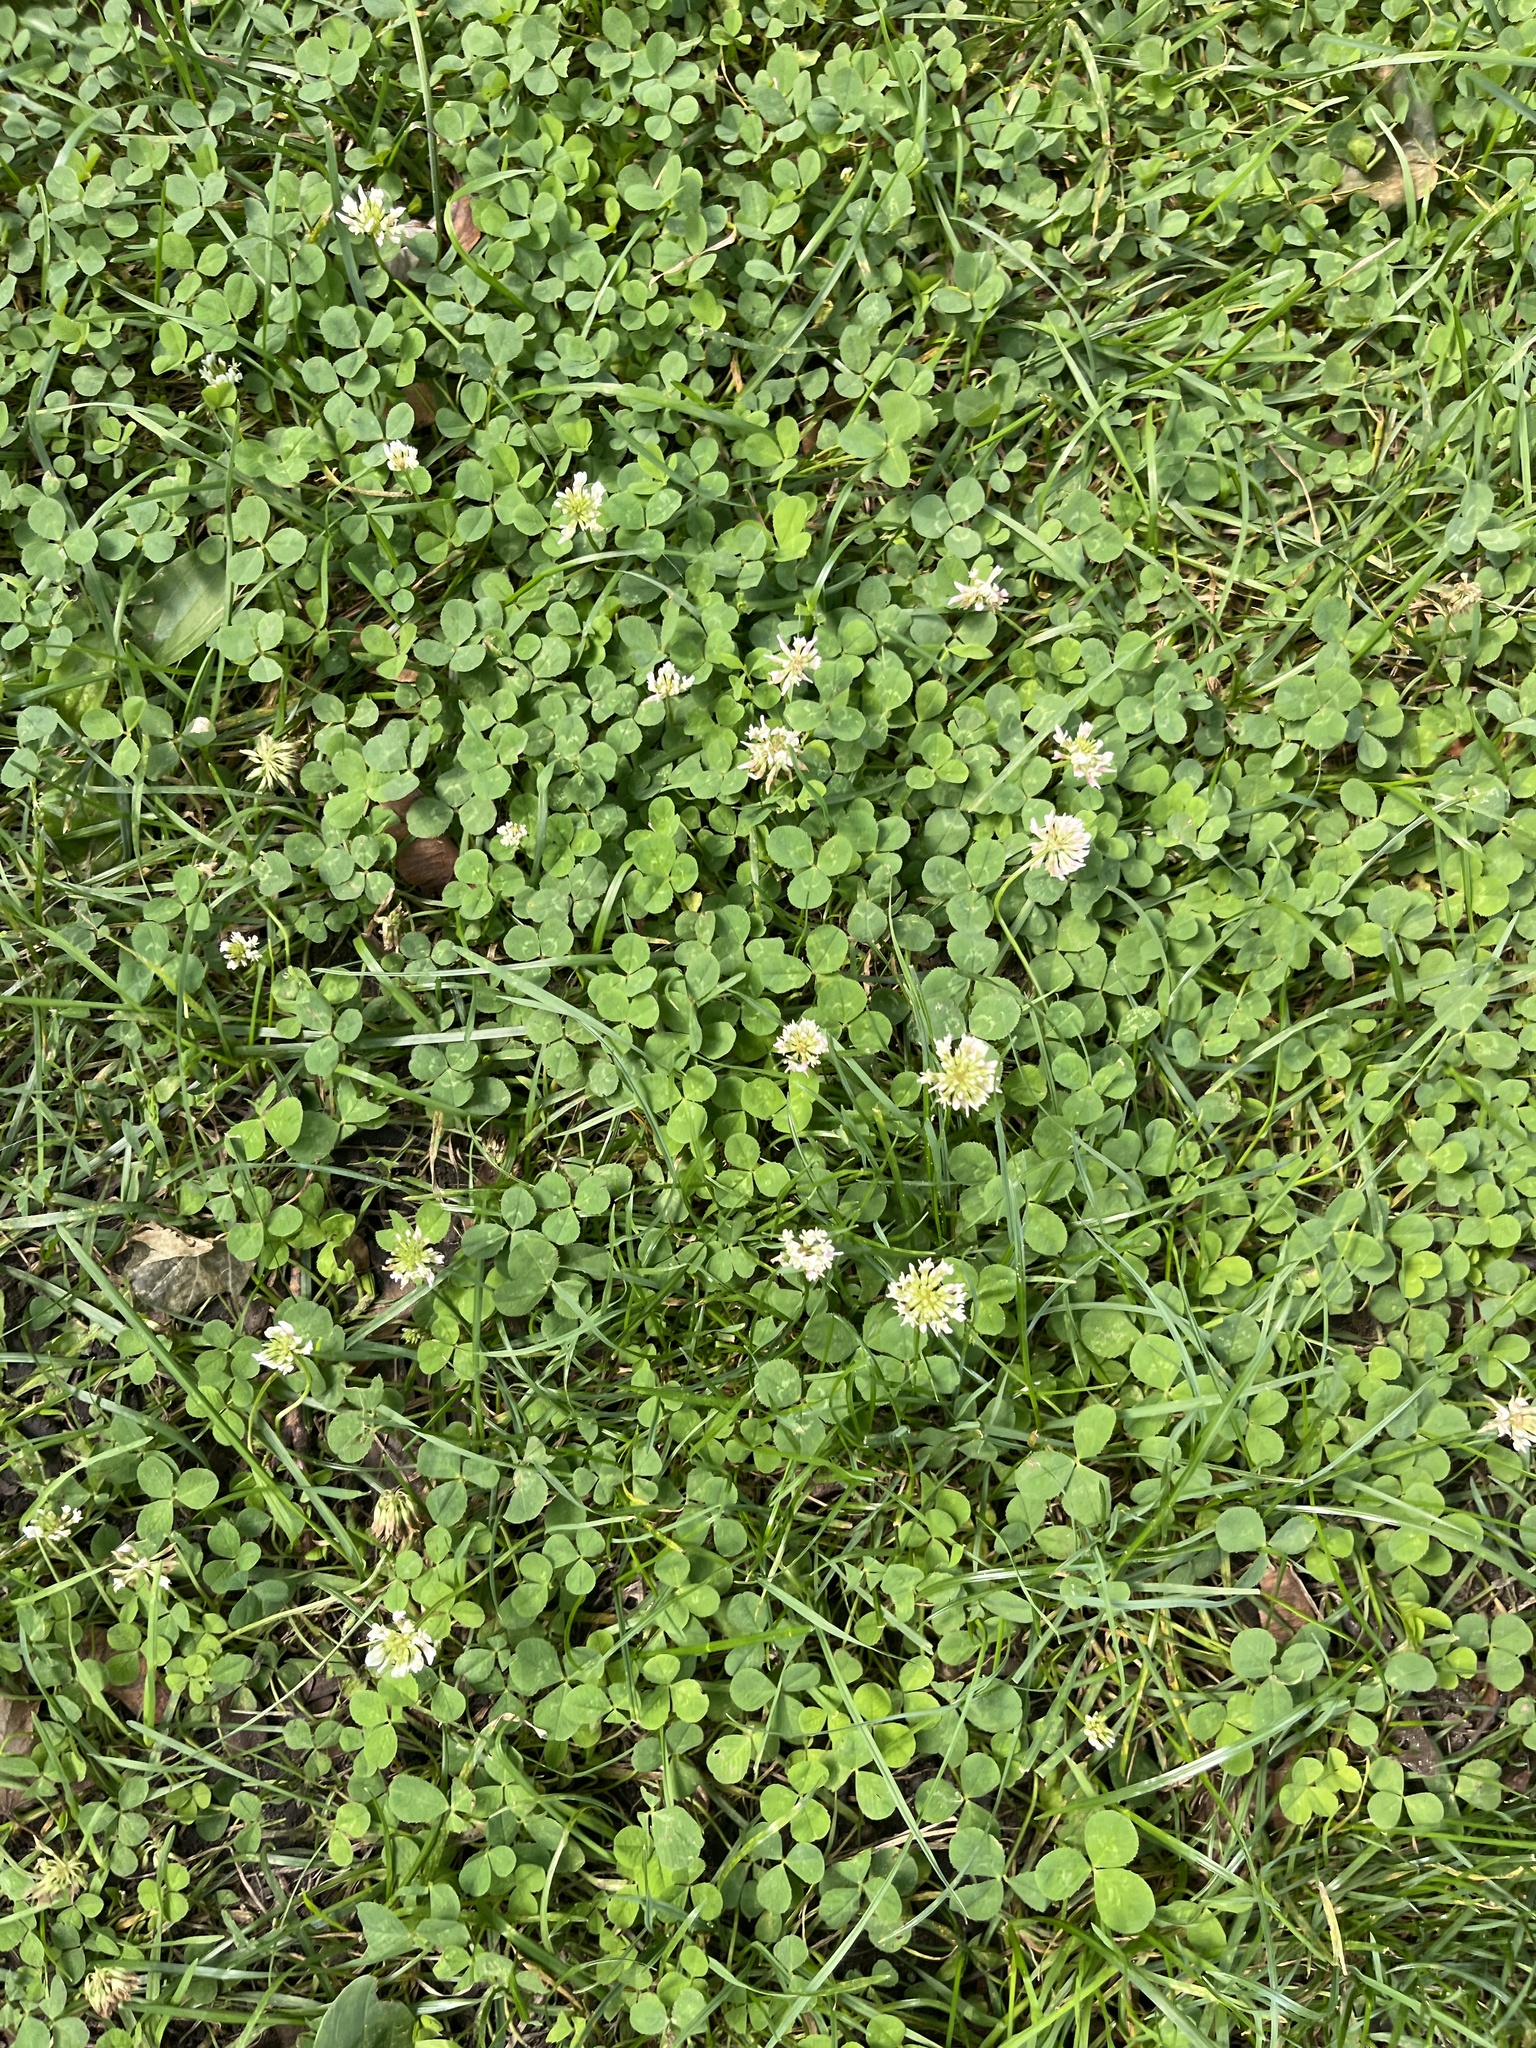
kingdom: Plantae
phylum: Tracheophyta
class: Magnoliopsida
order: Fabales
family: Fabaceae
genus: Trifolium
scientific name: Trifolium repens
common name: White clover
